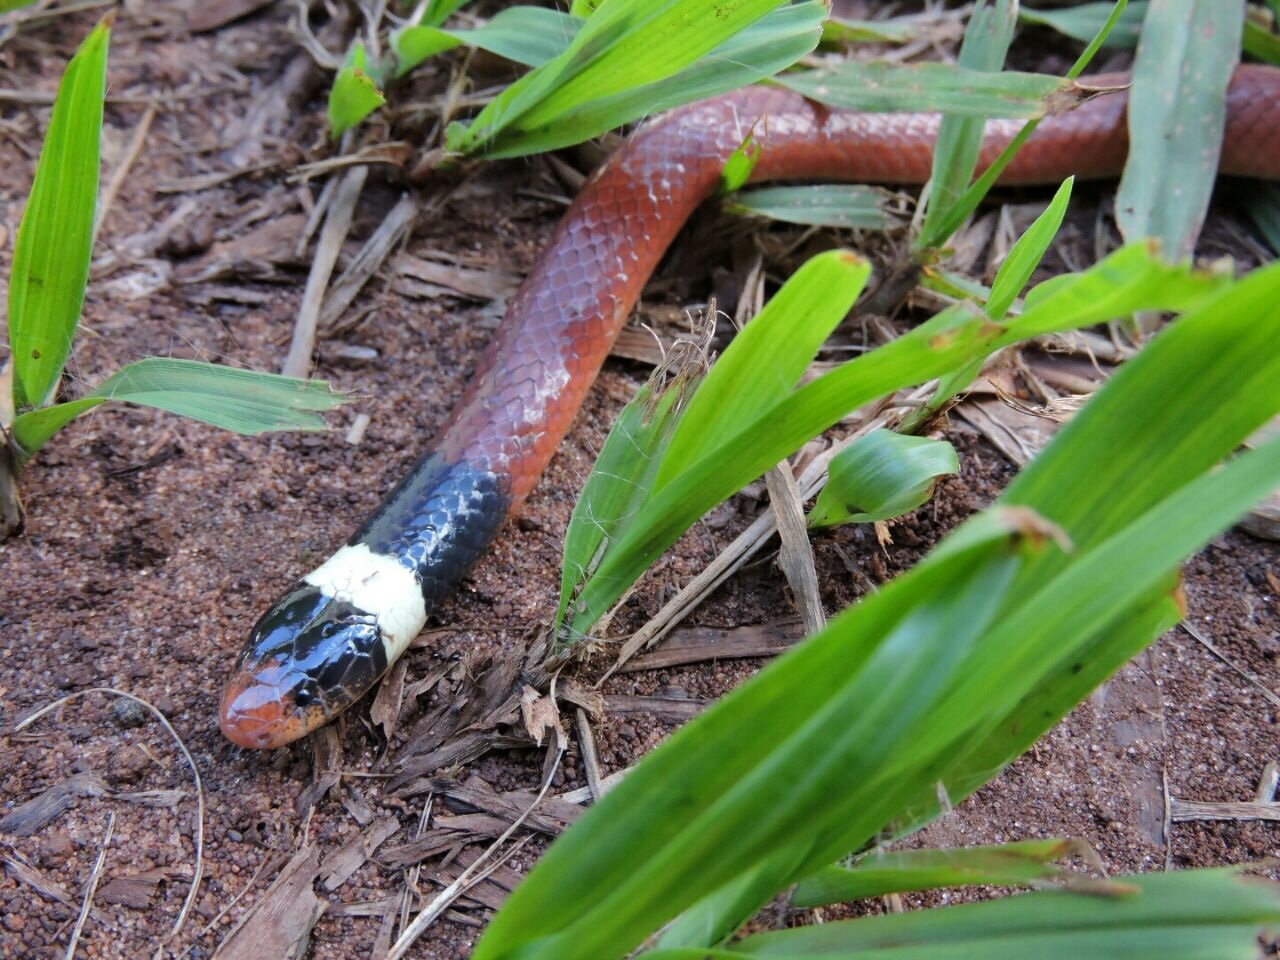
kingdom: Animalia
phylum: Chordata
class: Squamata
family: Colubridae
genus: Phalotris
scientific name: Phalotris matogrossensis
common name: Mato grosso burrowing snake
